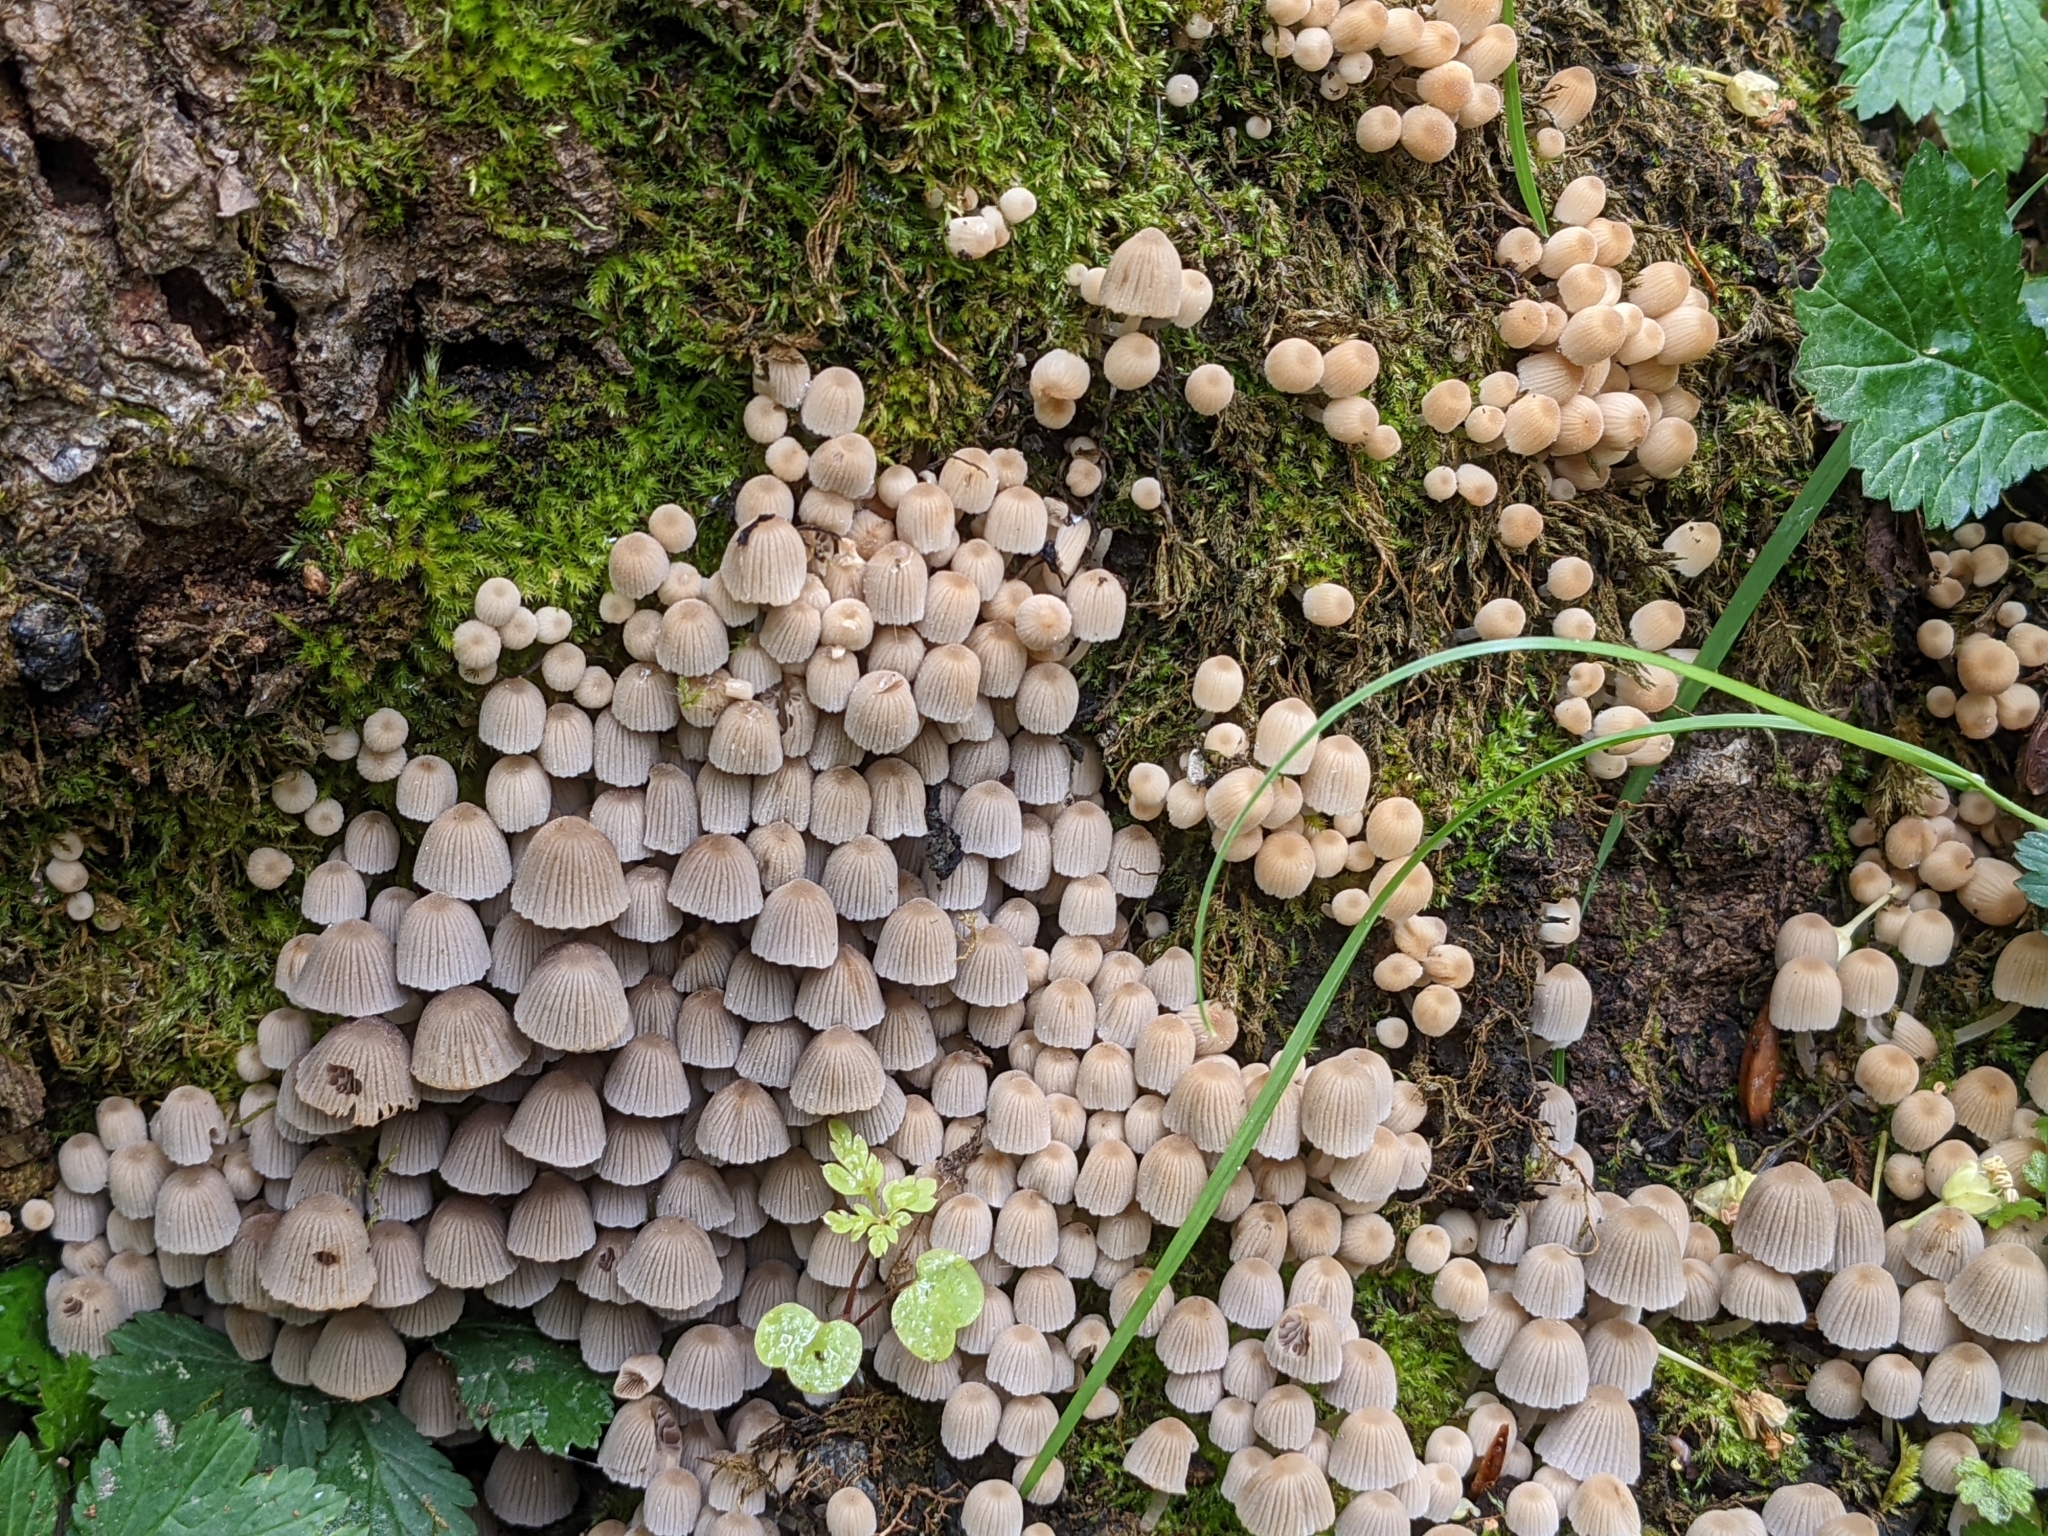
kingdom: Fungi
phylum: Basidiomycota
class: Agaricomycetes
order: Agaricales
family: Psathyrellaceae
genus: Coprinellus
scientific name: Coprinellus disseminatus
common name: Fairies' bonnets
